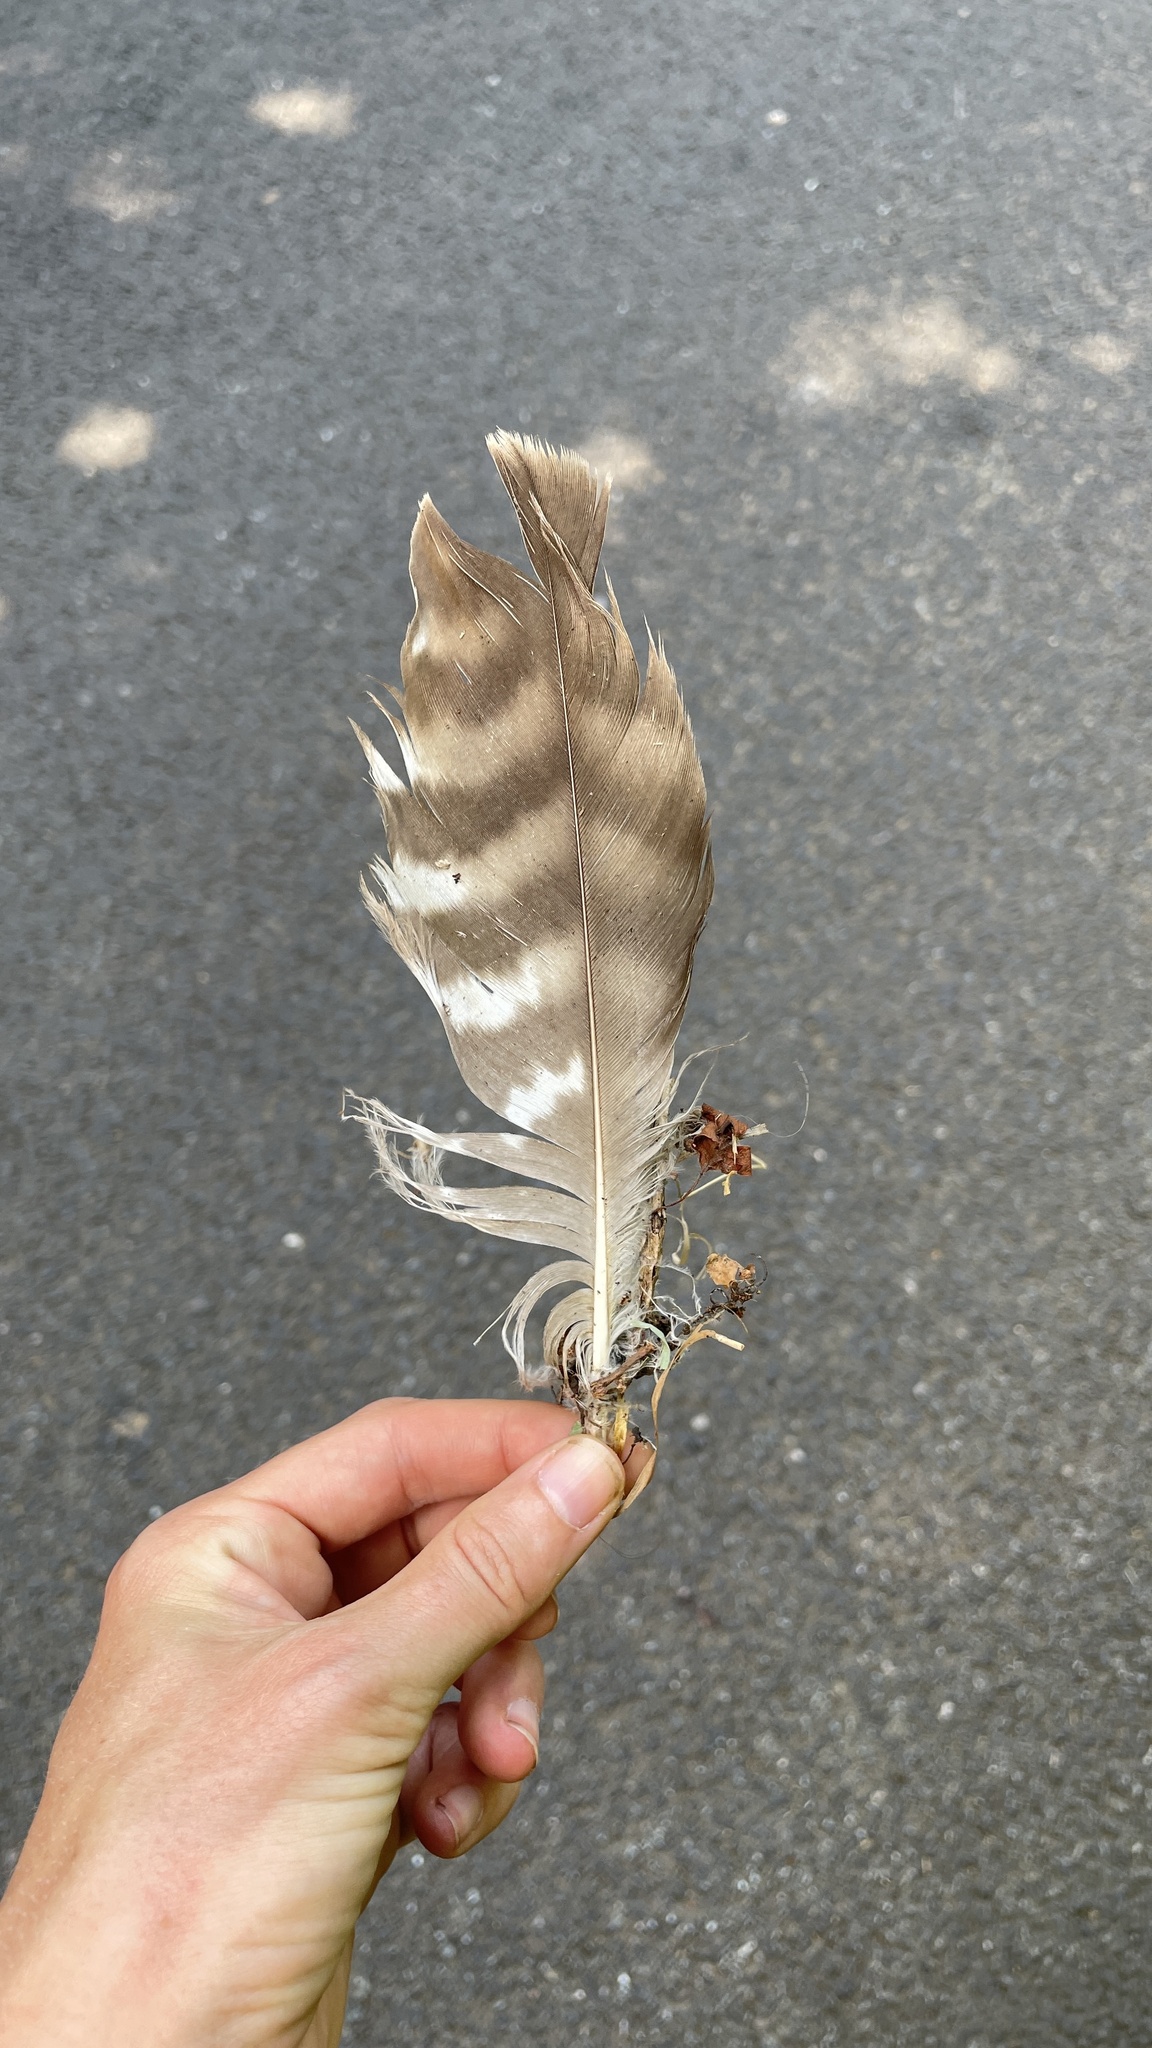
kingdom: Animalia
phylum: Chordata
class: Aves
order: Accipitriformes
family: Accipitridae
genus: Buteo
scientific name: Buteo buteo
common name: Common buzzard
